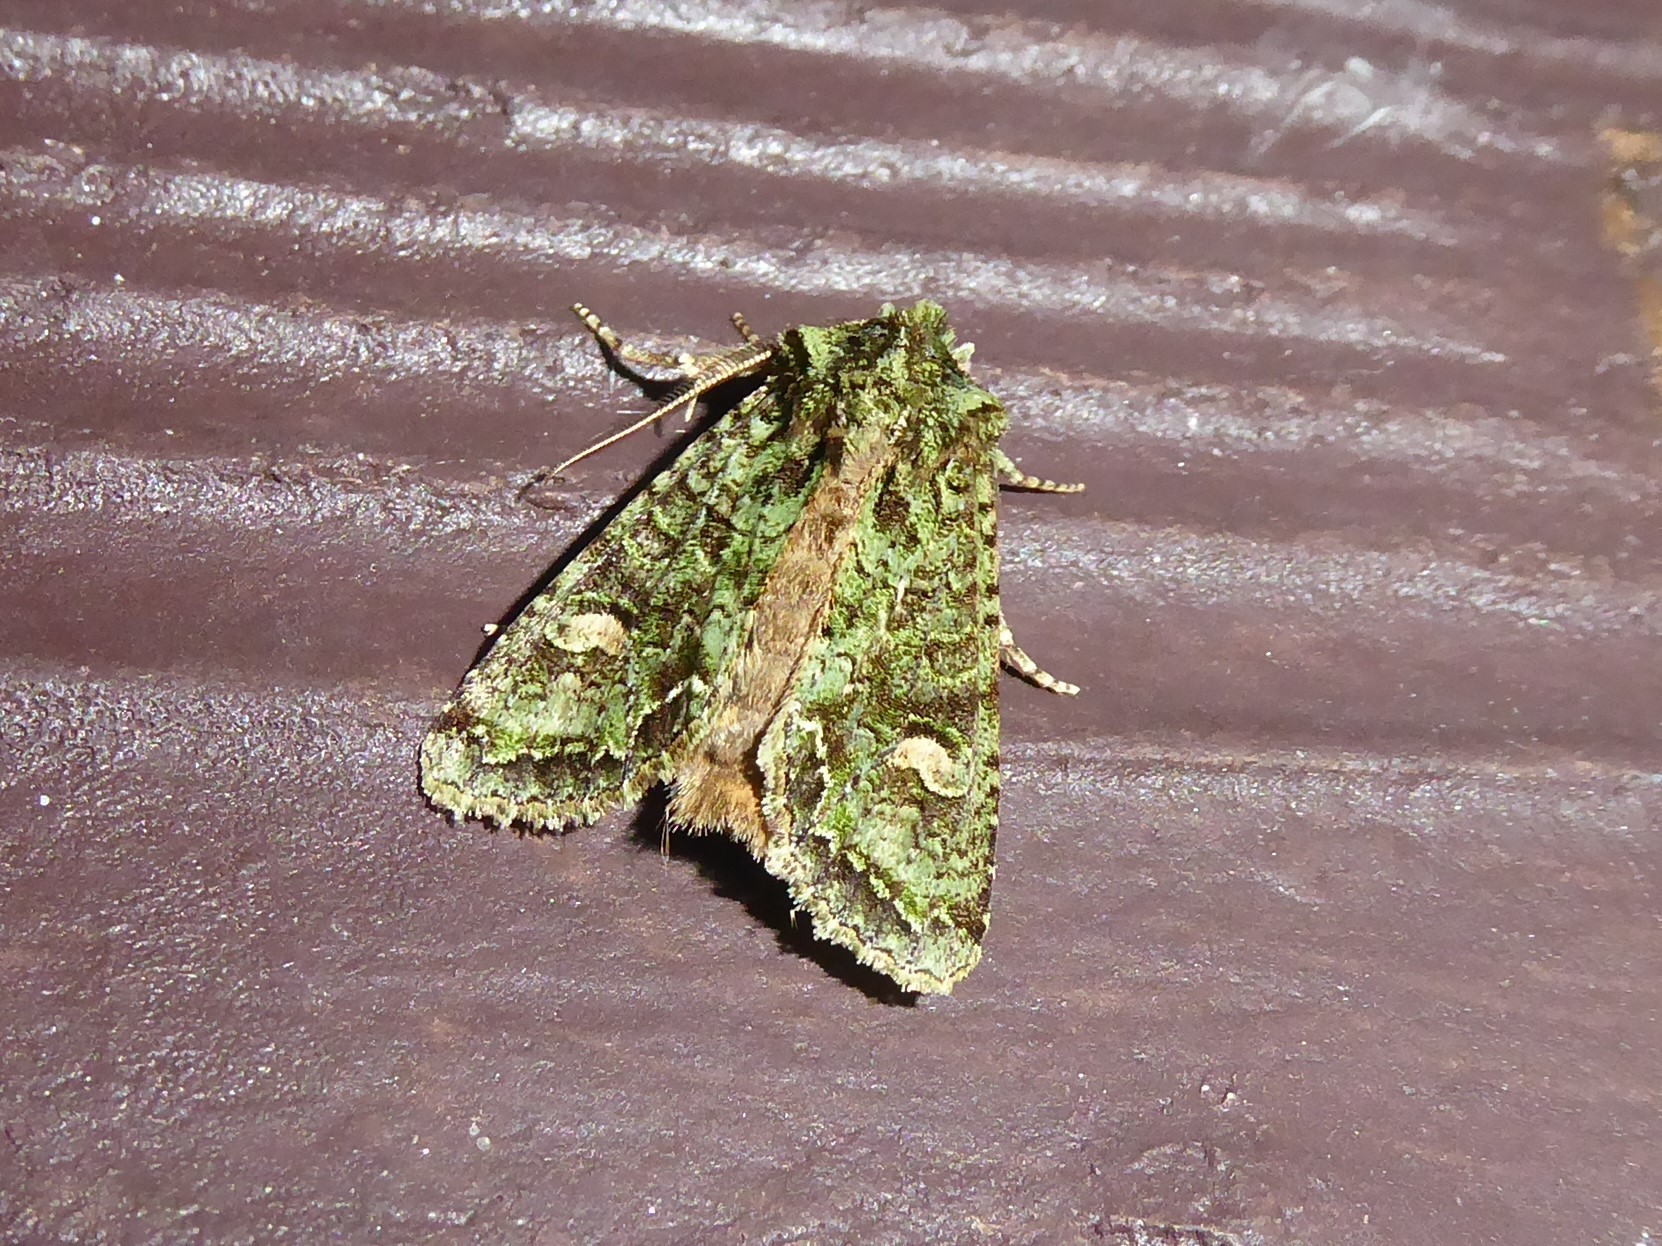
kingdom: Animalia
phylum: Arthropoda
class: Insecta
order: Lepidoptera
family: Noctuidae
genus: Ichneutica
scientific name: Ichneutica
